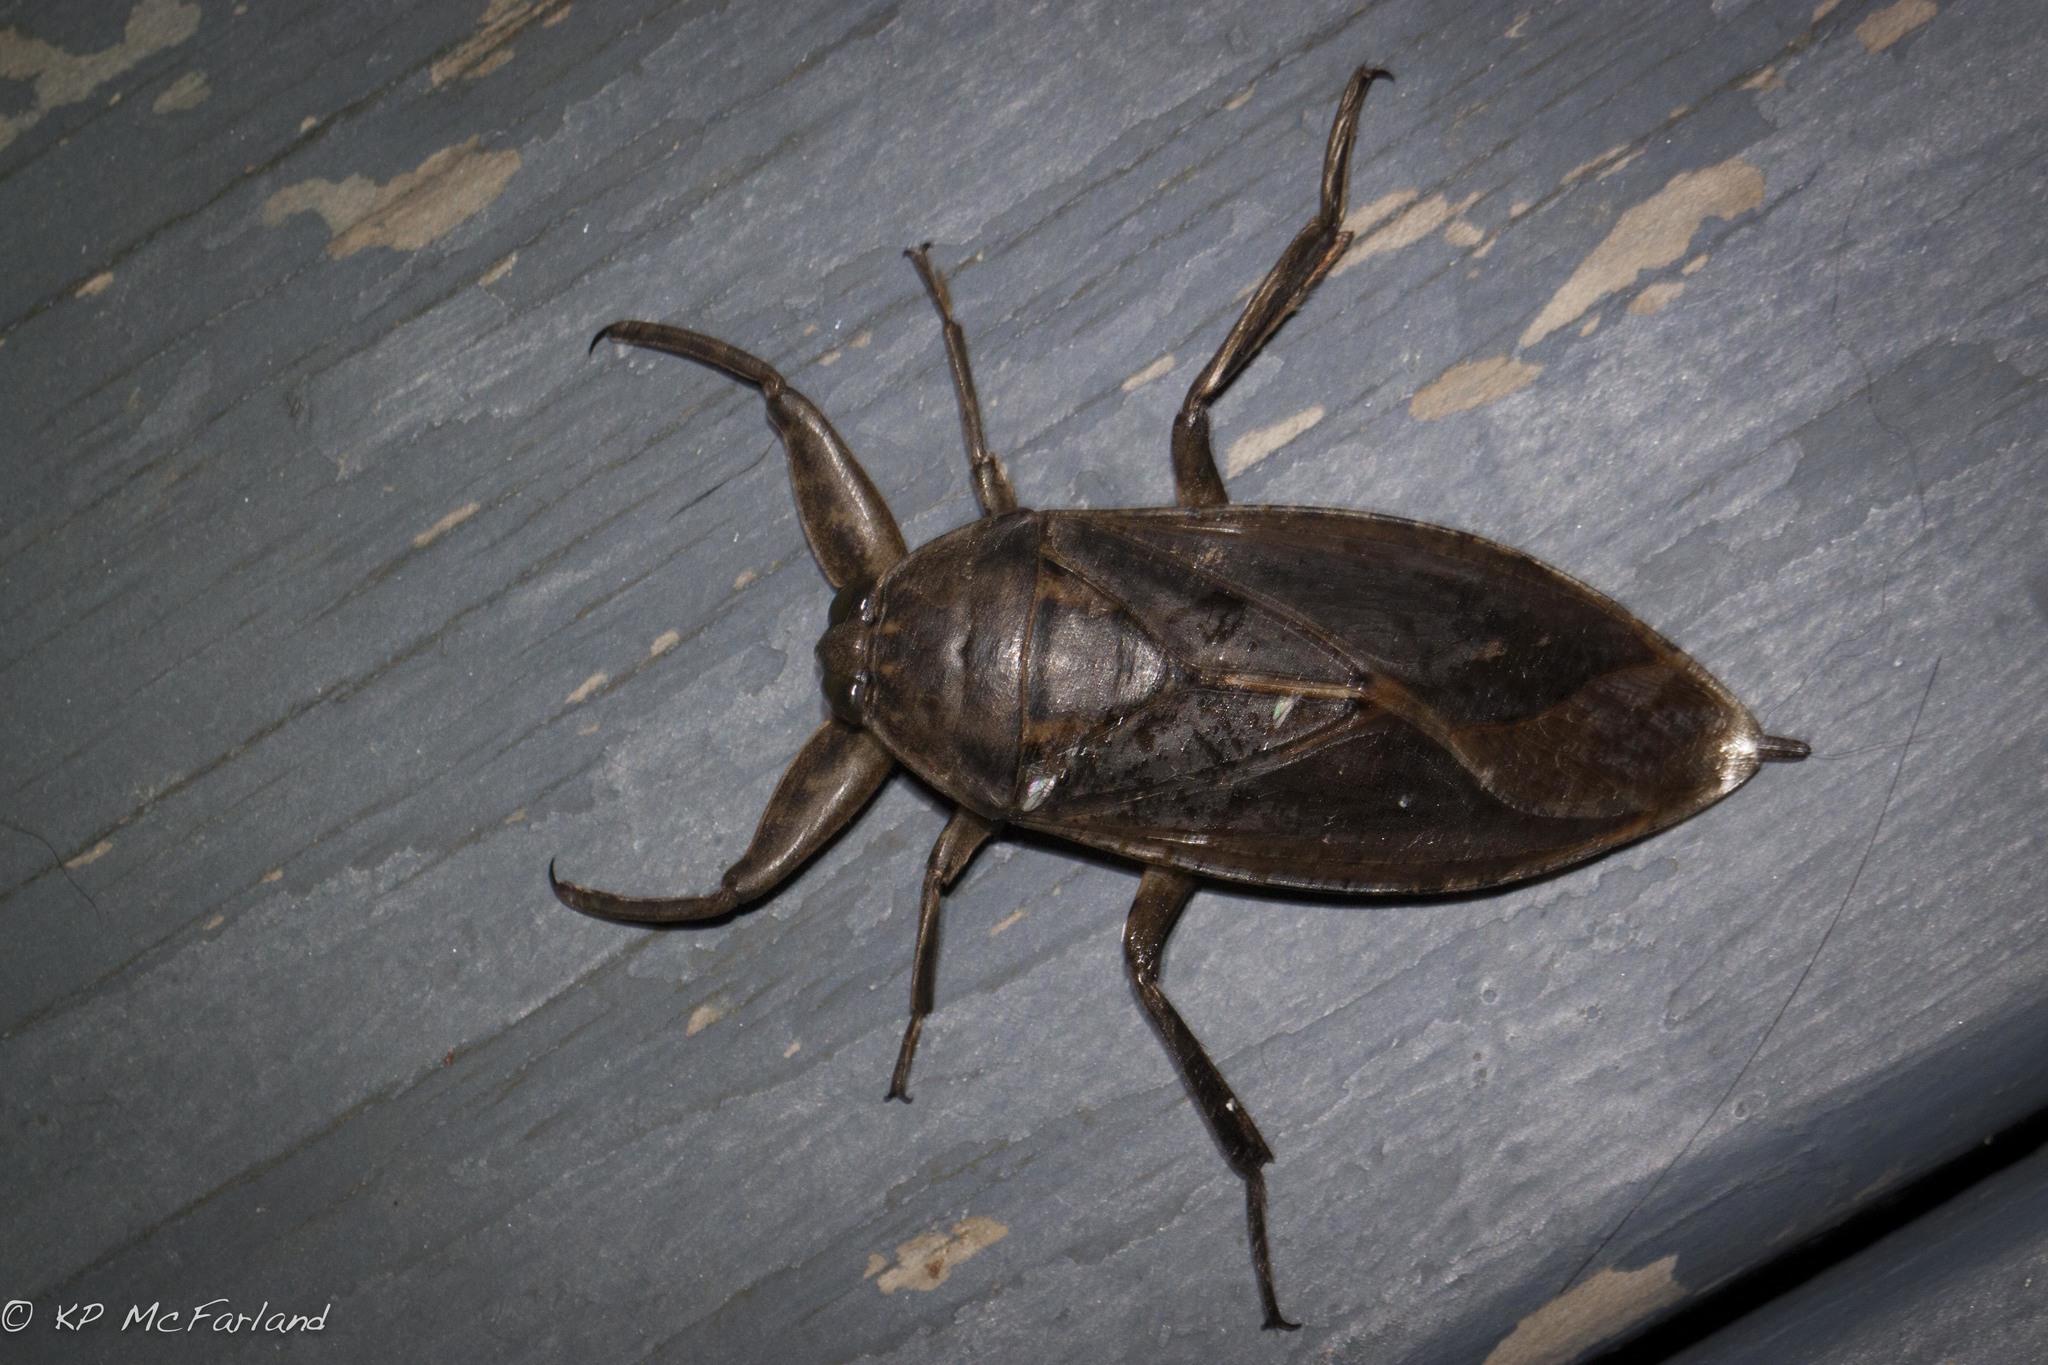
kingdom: Animalia
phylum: Arthropoda
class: Insecta
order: Hemiptera
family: Belostomatidae
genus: Lethocerus
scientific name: Lethocerus americanus
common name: Giant water bug
